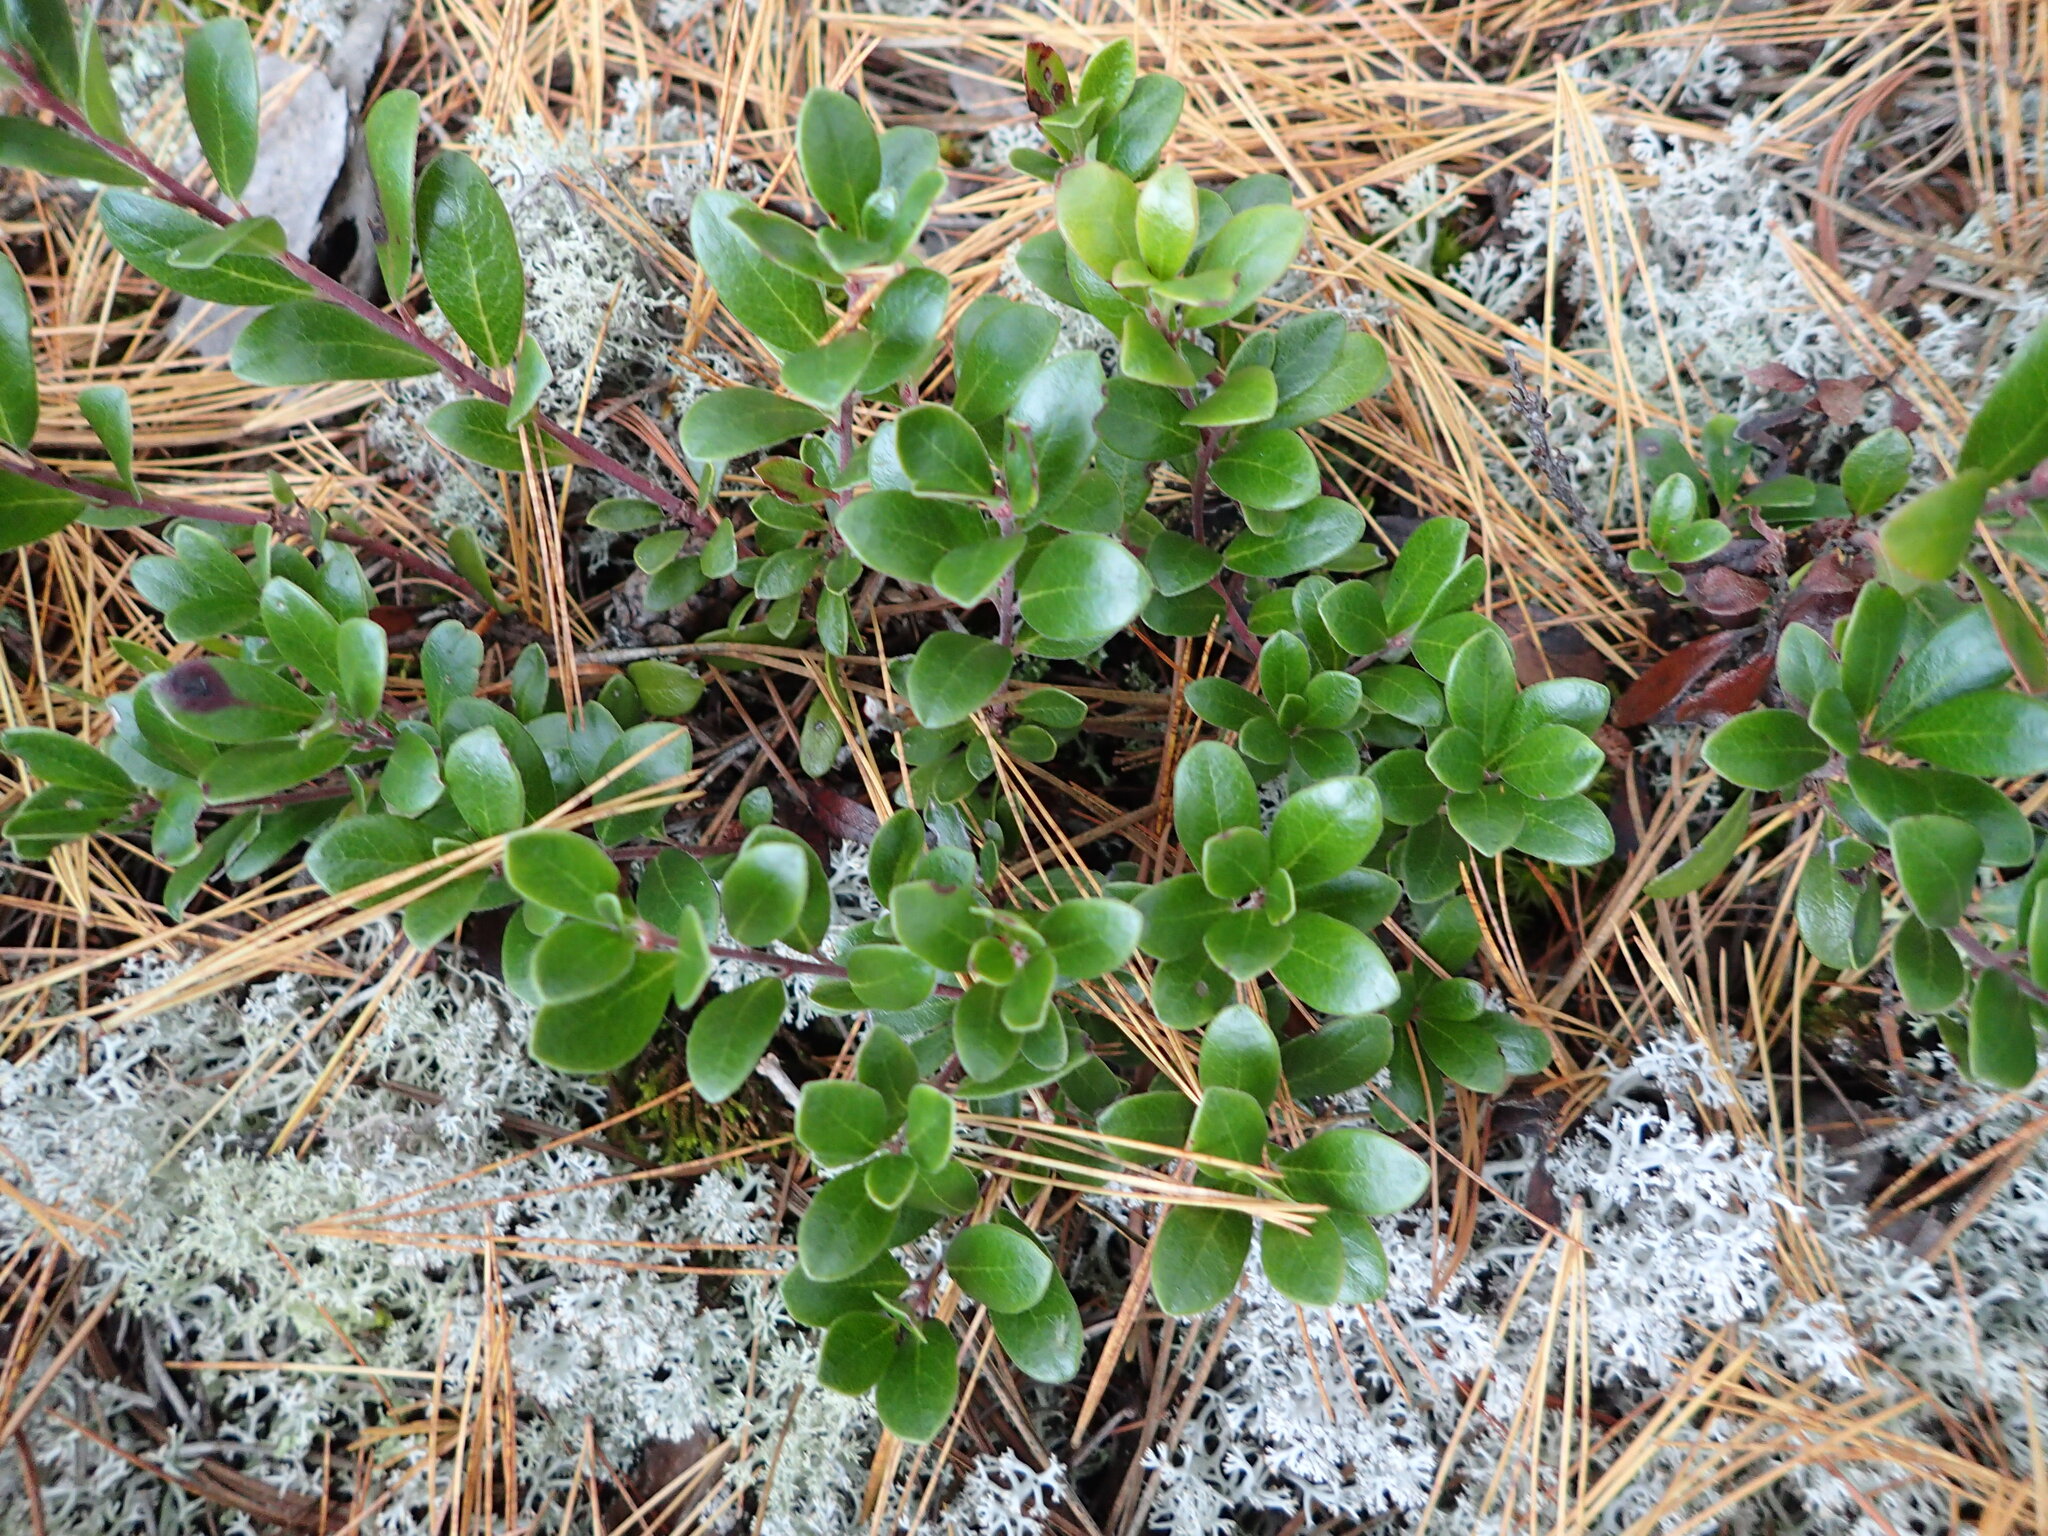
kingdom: Plantae
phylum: Tracheophyta
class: Magnoliopsida
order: Ericales
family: Ericaceae
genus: Arctostaphylos
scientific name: Arctostaphylos uva-ursi
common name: Bearberry
